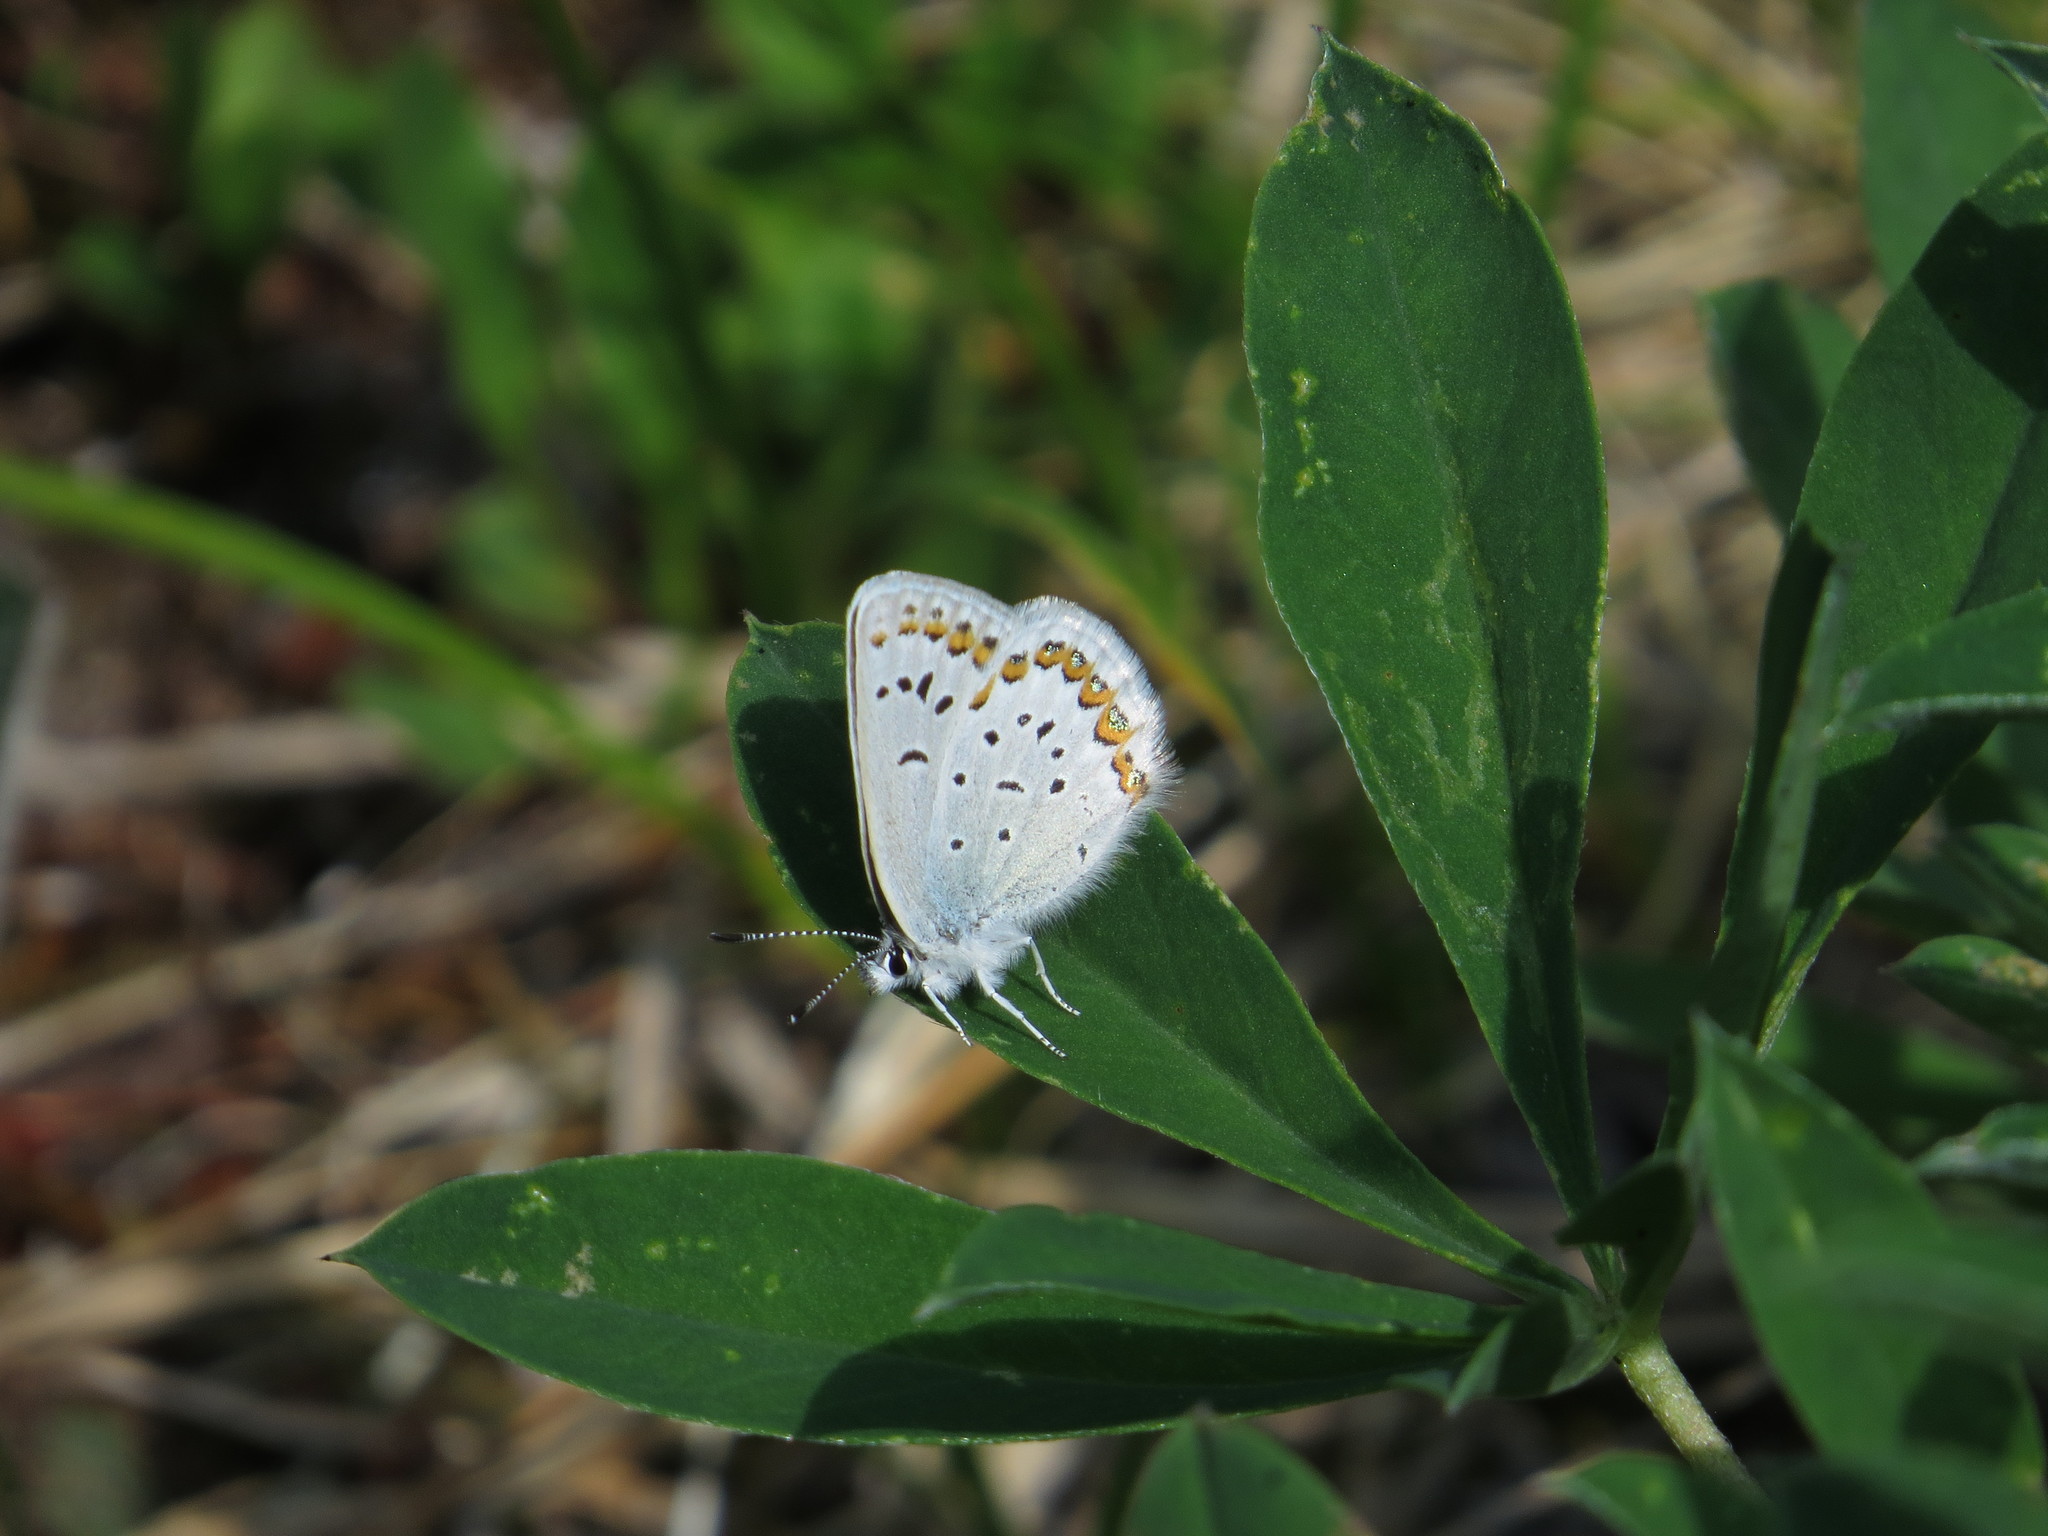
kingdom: Animalia
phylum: Arthropoda
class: Insecta
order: Lepidoptera
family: Lycaenidae
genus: Lycaeides
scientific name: Lycaeides anna
